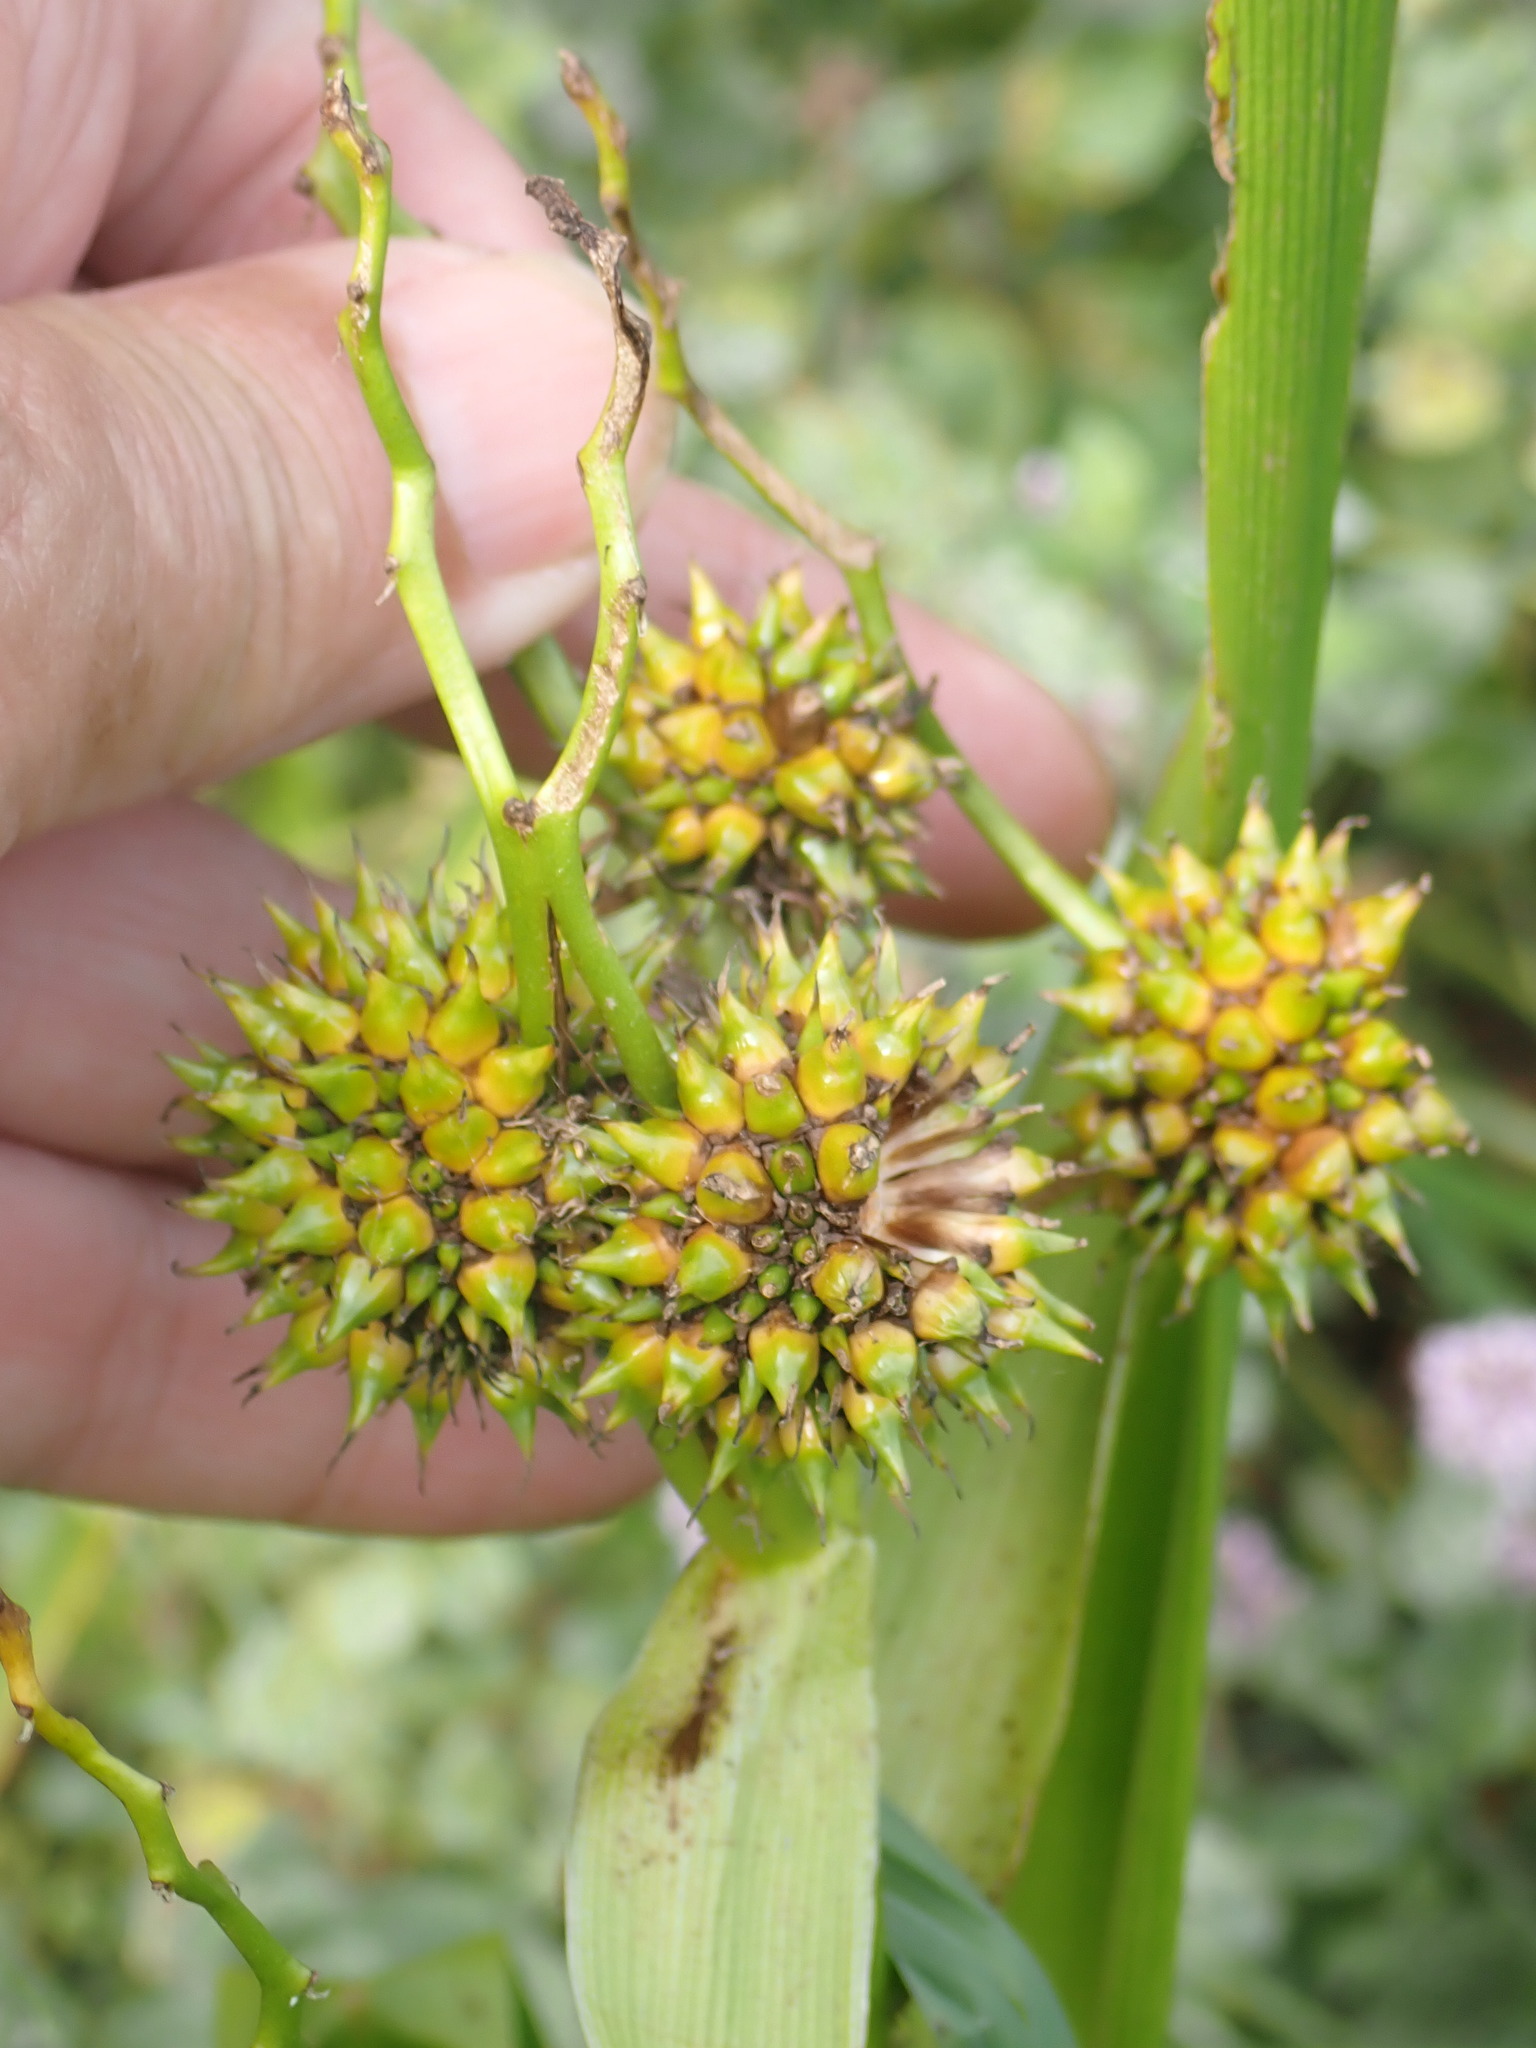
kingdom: Plantae
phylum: Tracheophyta
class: Liliopsida
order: Poales
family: Typhaceae
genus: Sparganium
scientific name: Sparganium erectum
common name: Branched bur-reed
